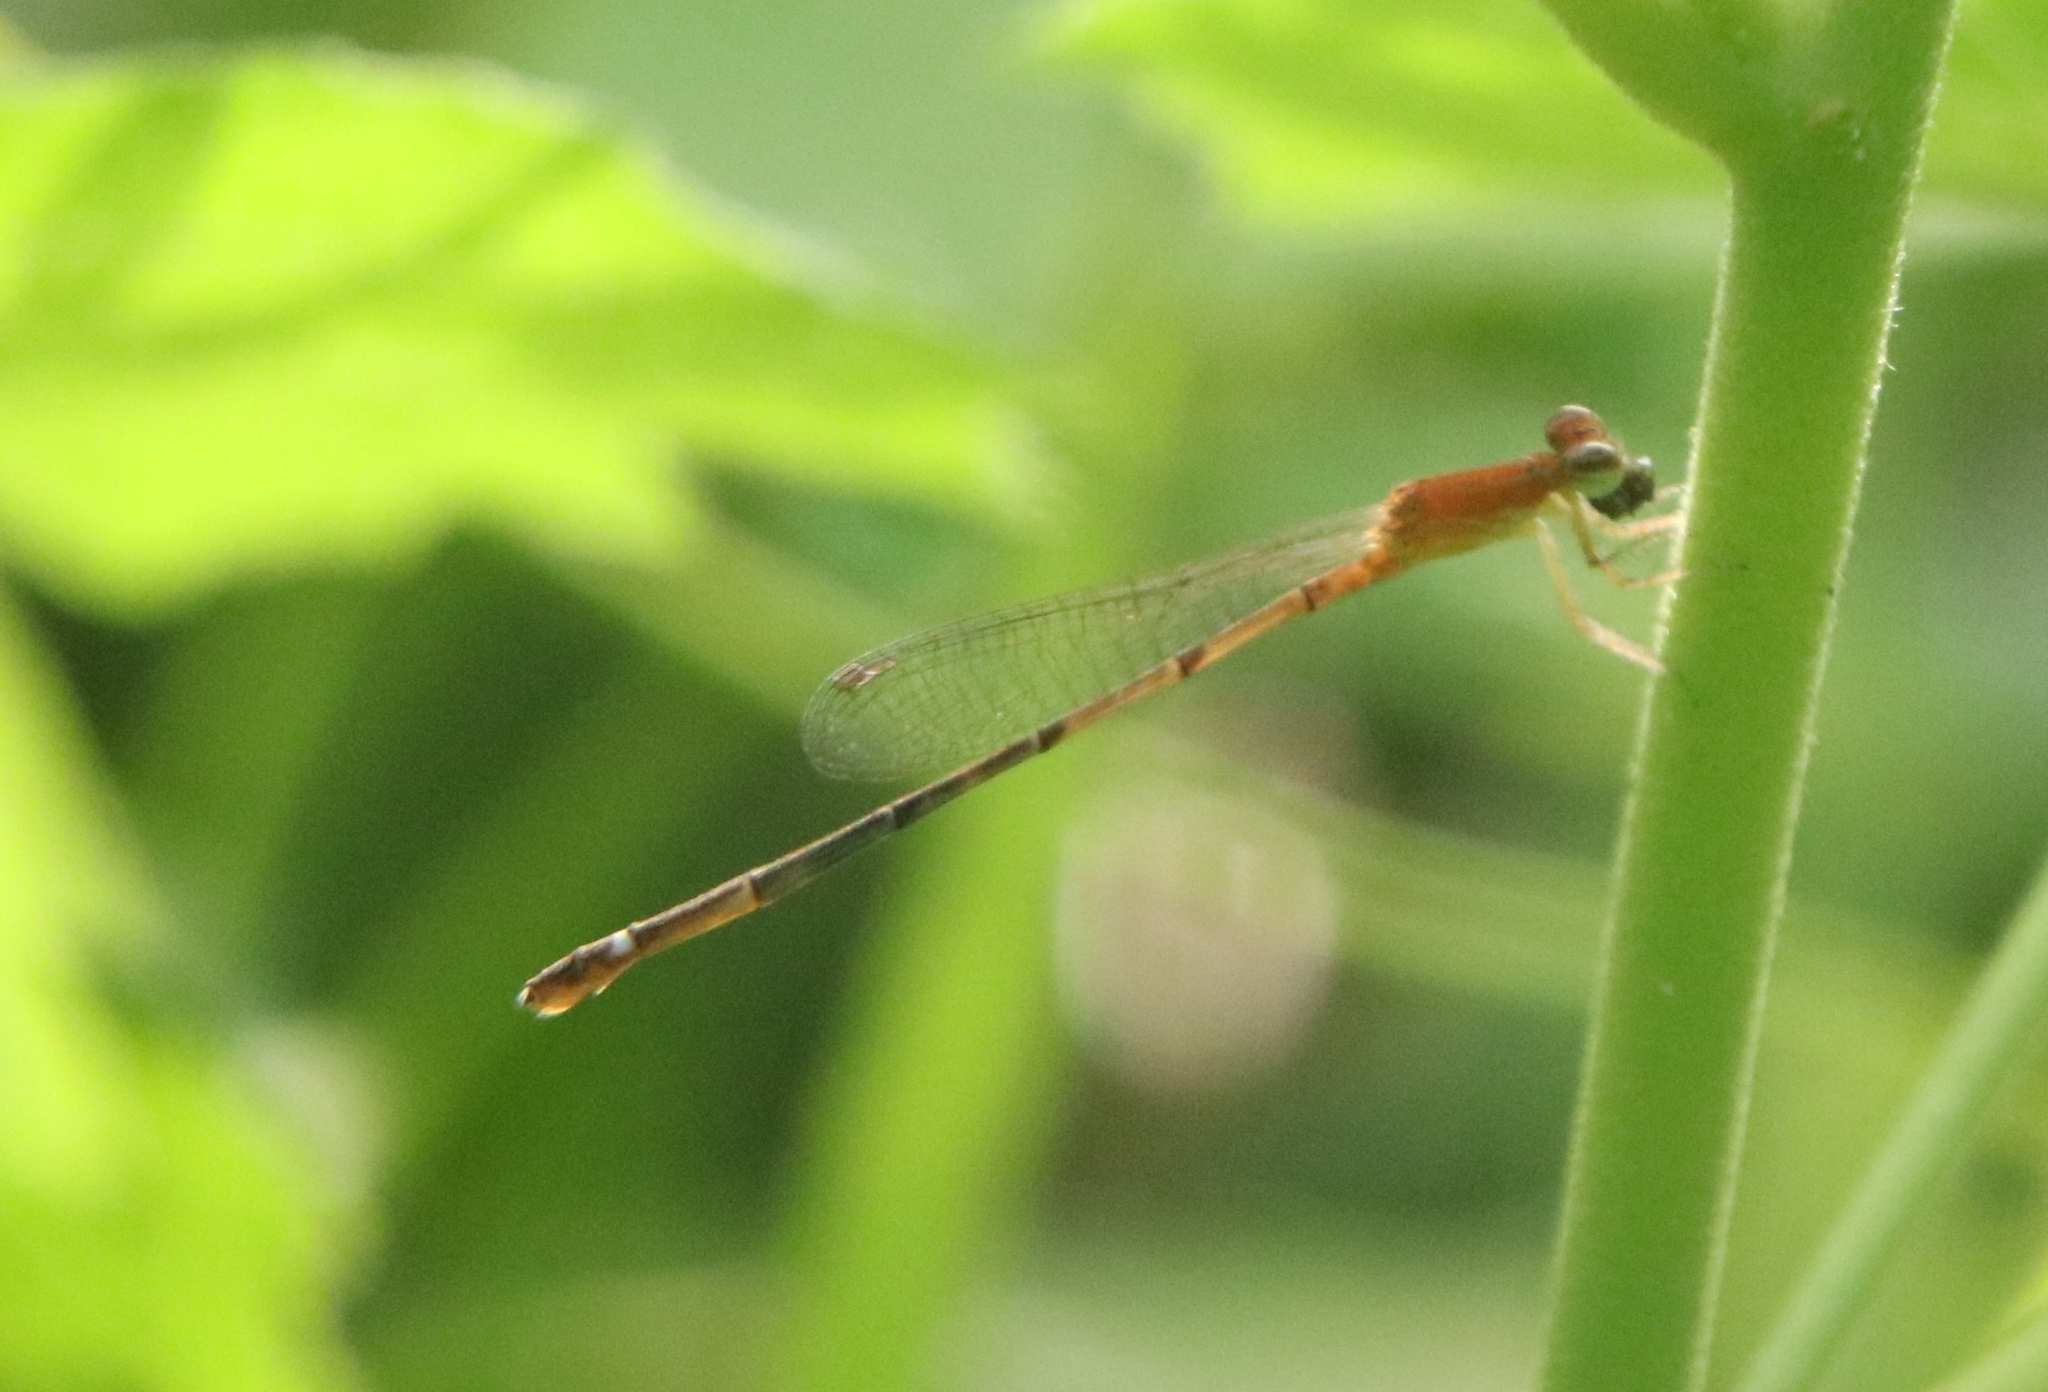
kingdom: Animalia
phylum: Arthropoda
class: Insecta
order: Odonata
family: Coenagrionidae
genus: Mortonagrion
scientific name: Mortonagrion varralli
